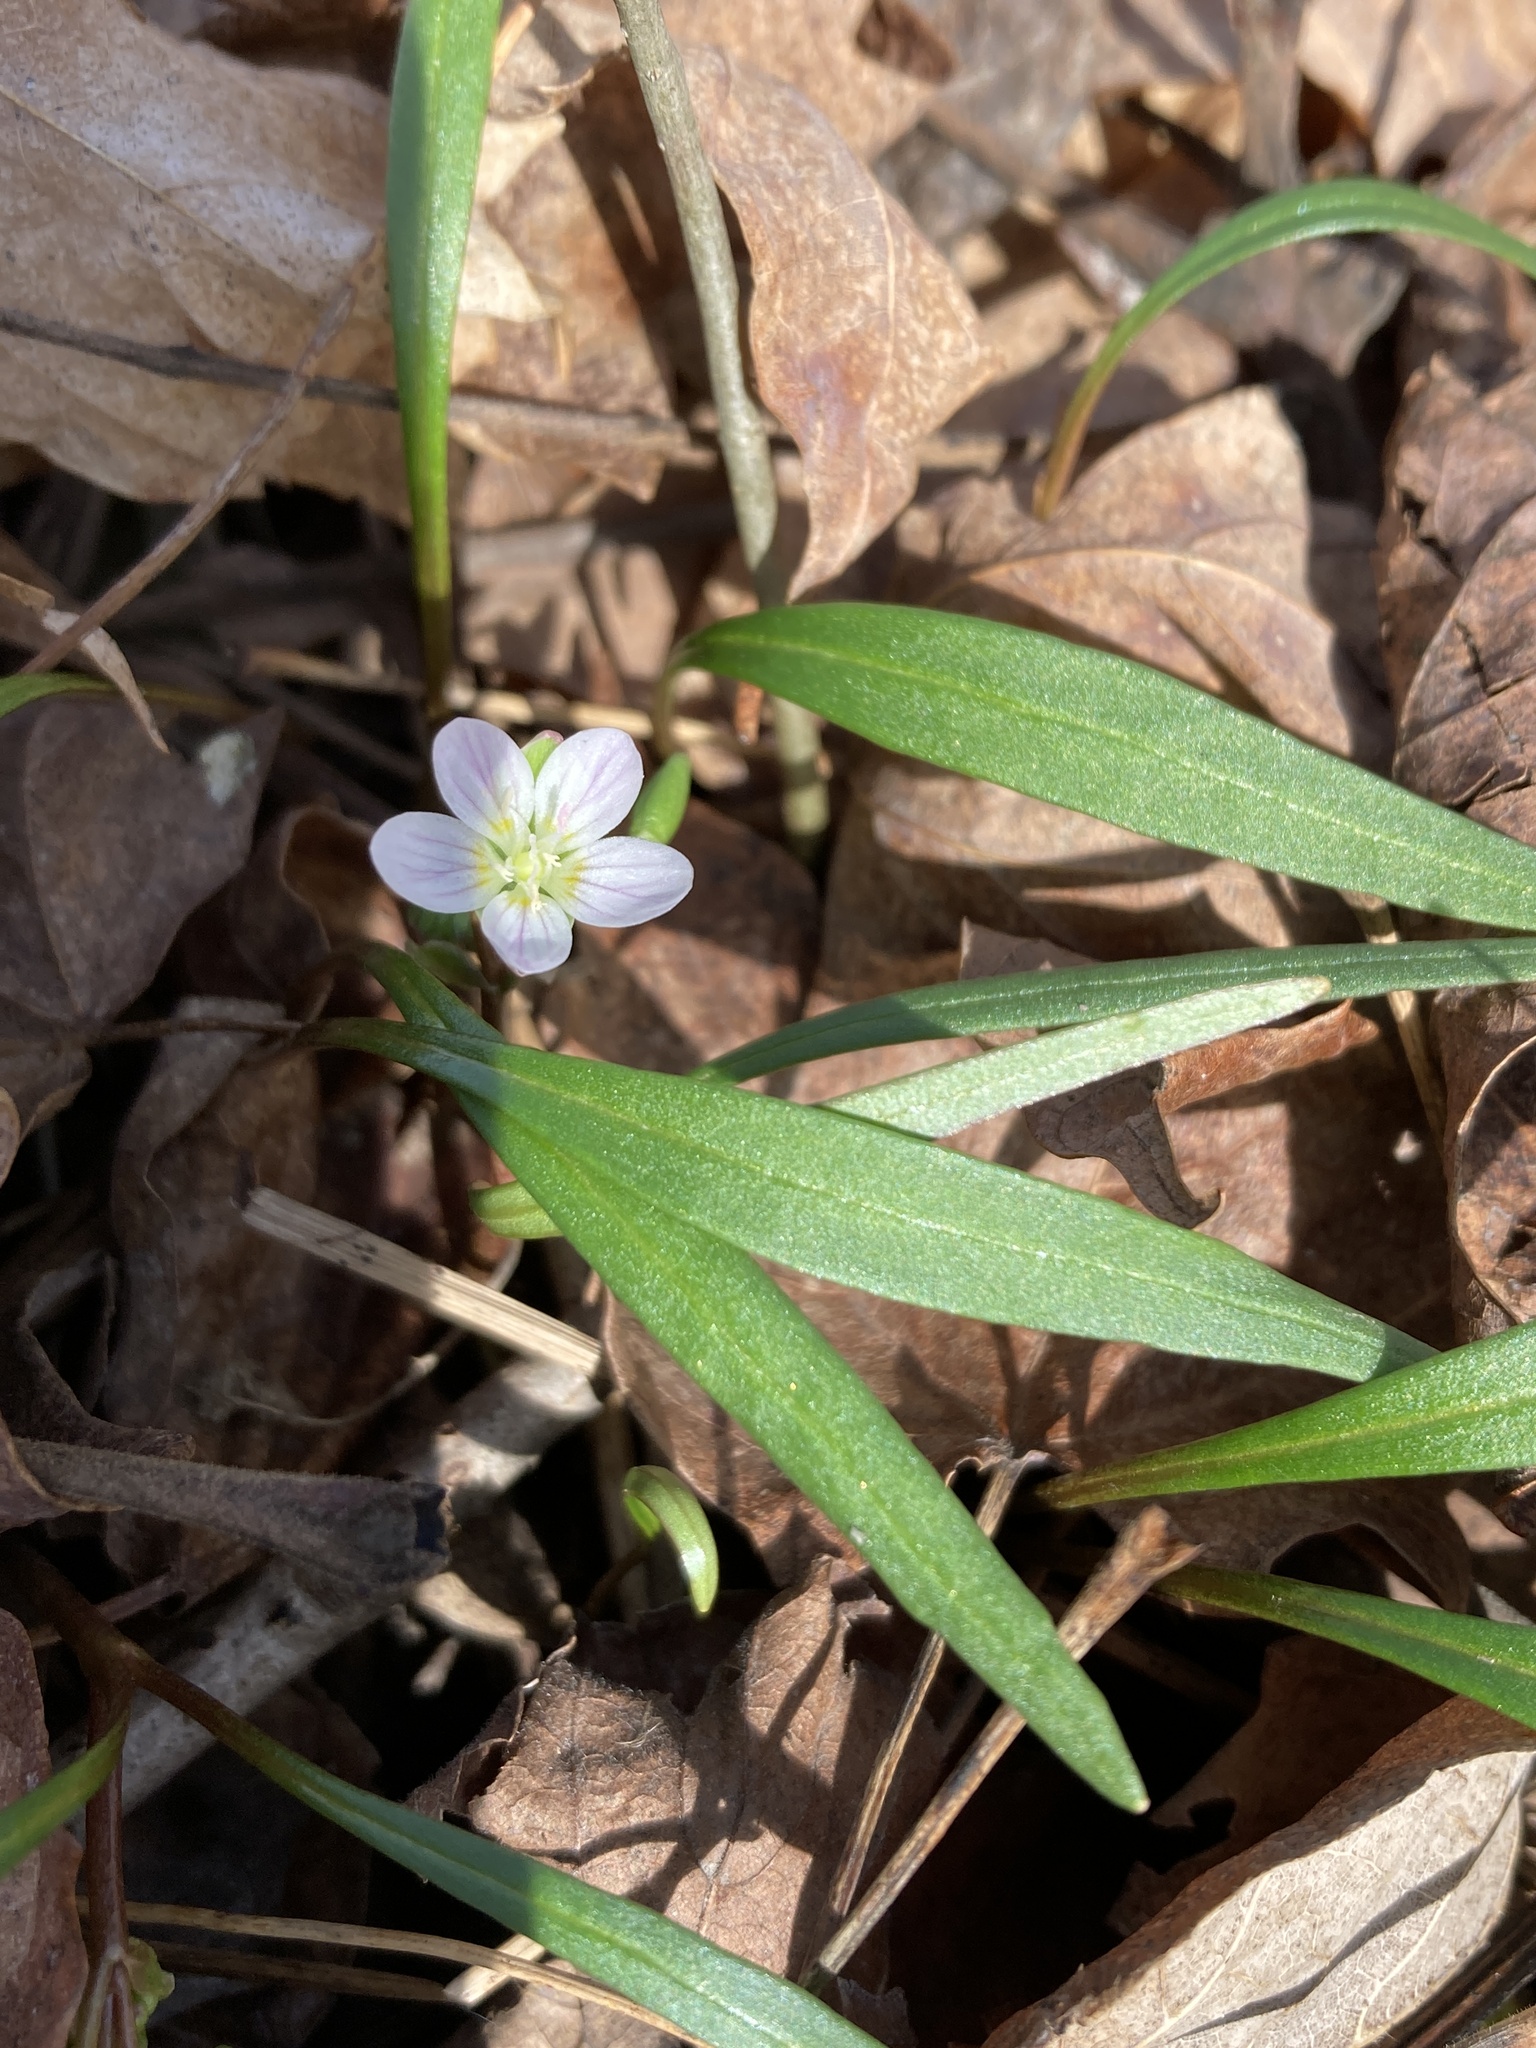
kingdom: Plantae
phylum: Tracheophyta
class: Magnoliopsida
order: Caryophyllales
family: Montiaceae
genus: Claytonia
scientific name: Claytonia virginica
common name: Virginia springbeauty
